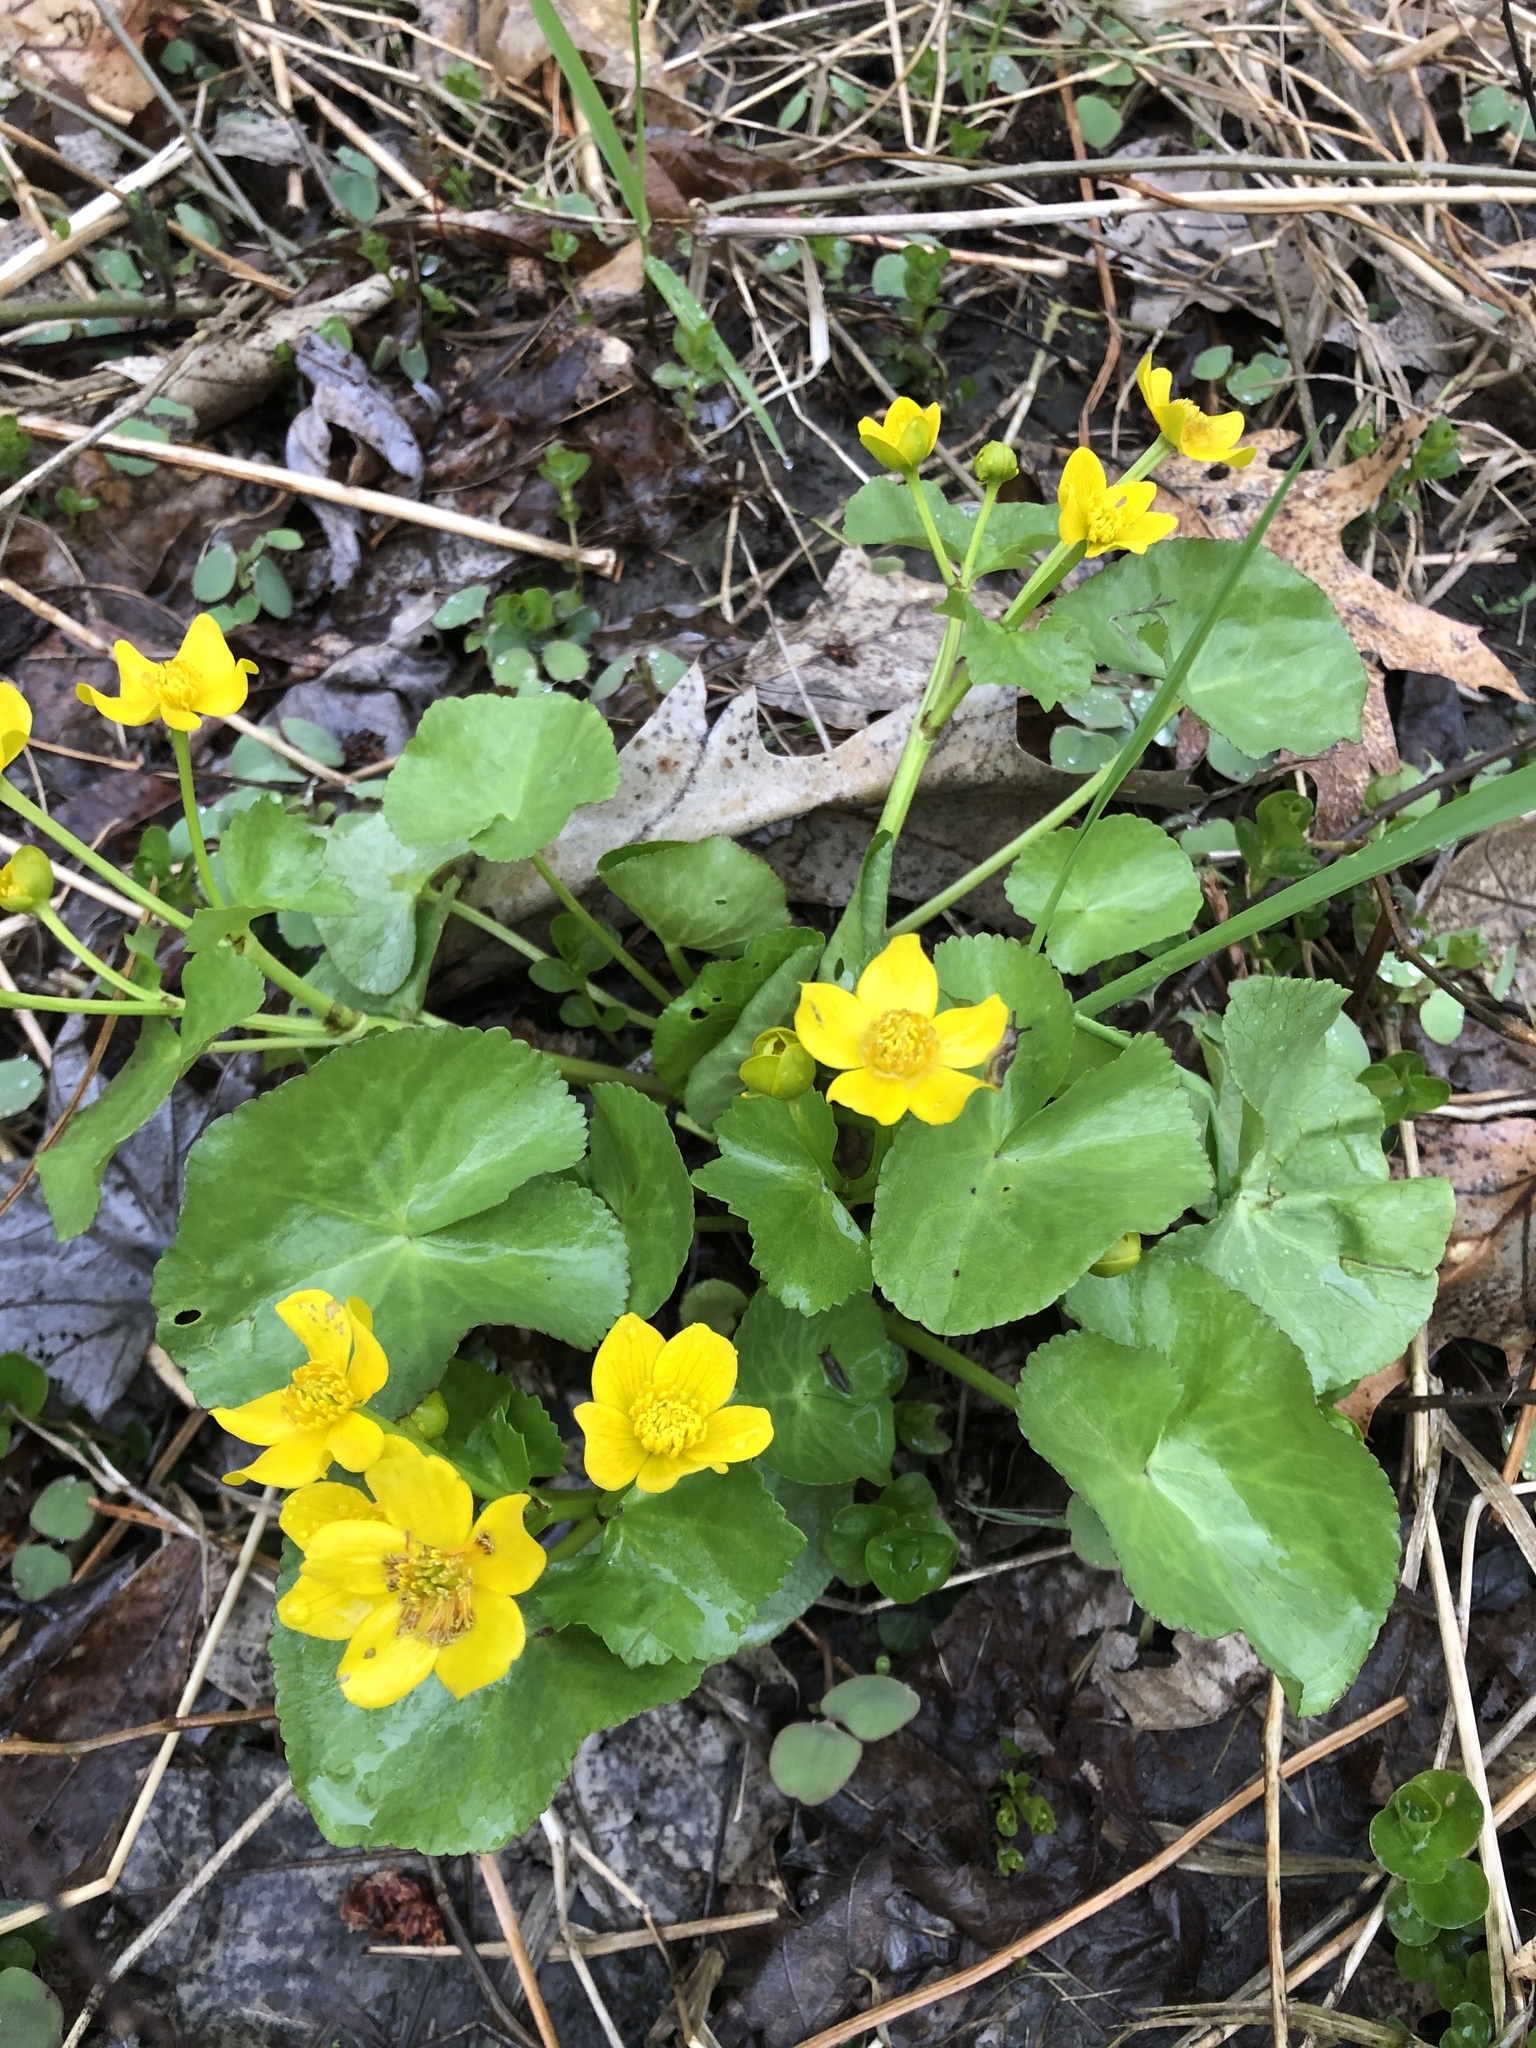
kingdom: Plantae
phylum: Tracheophyta
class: Magnoliopsida
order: Ranunculales
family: Ranunculaceae
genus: Caltha
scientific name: Caltha palustris
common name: Marsh marigold
